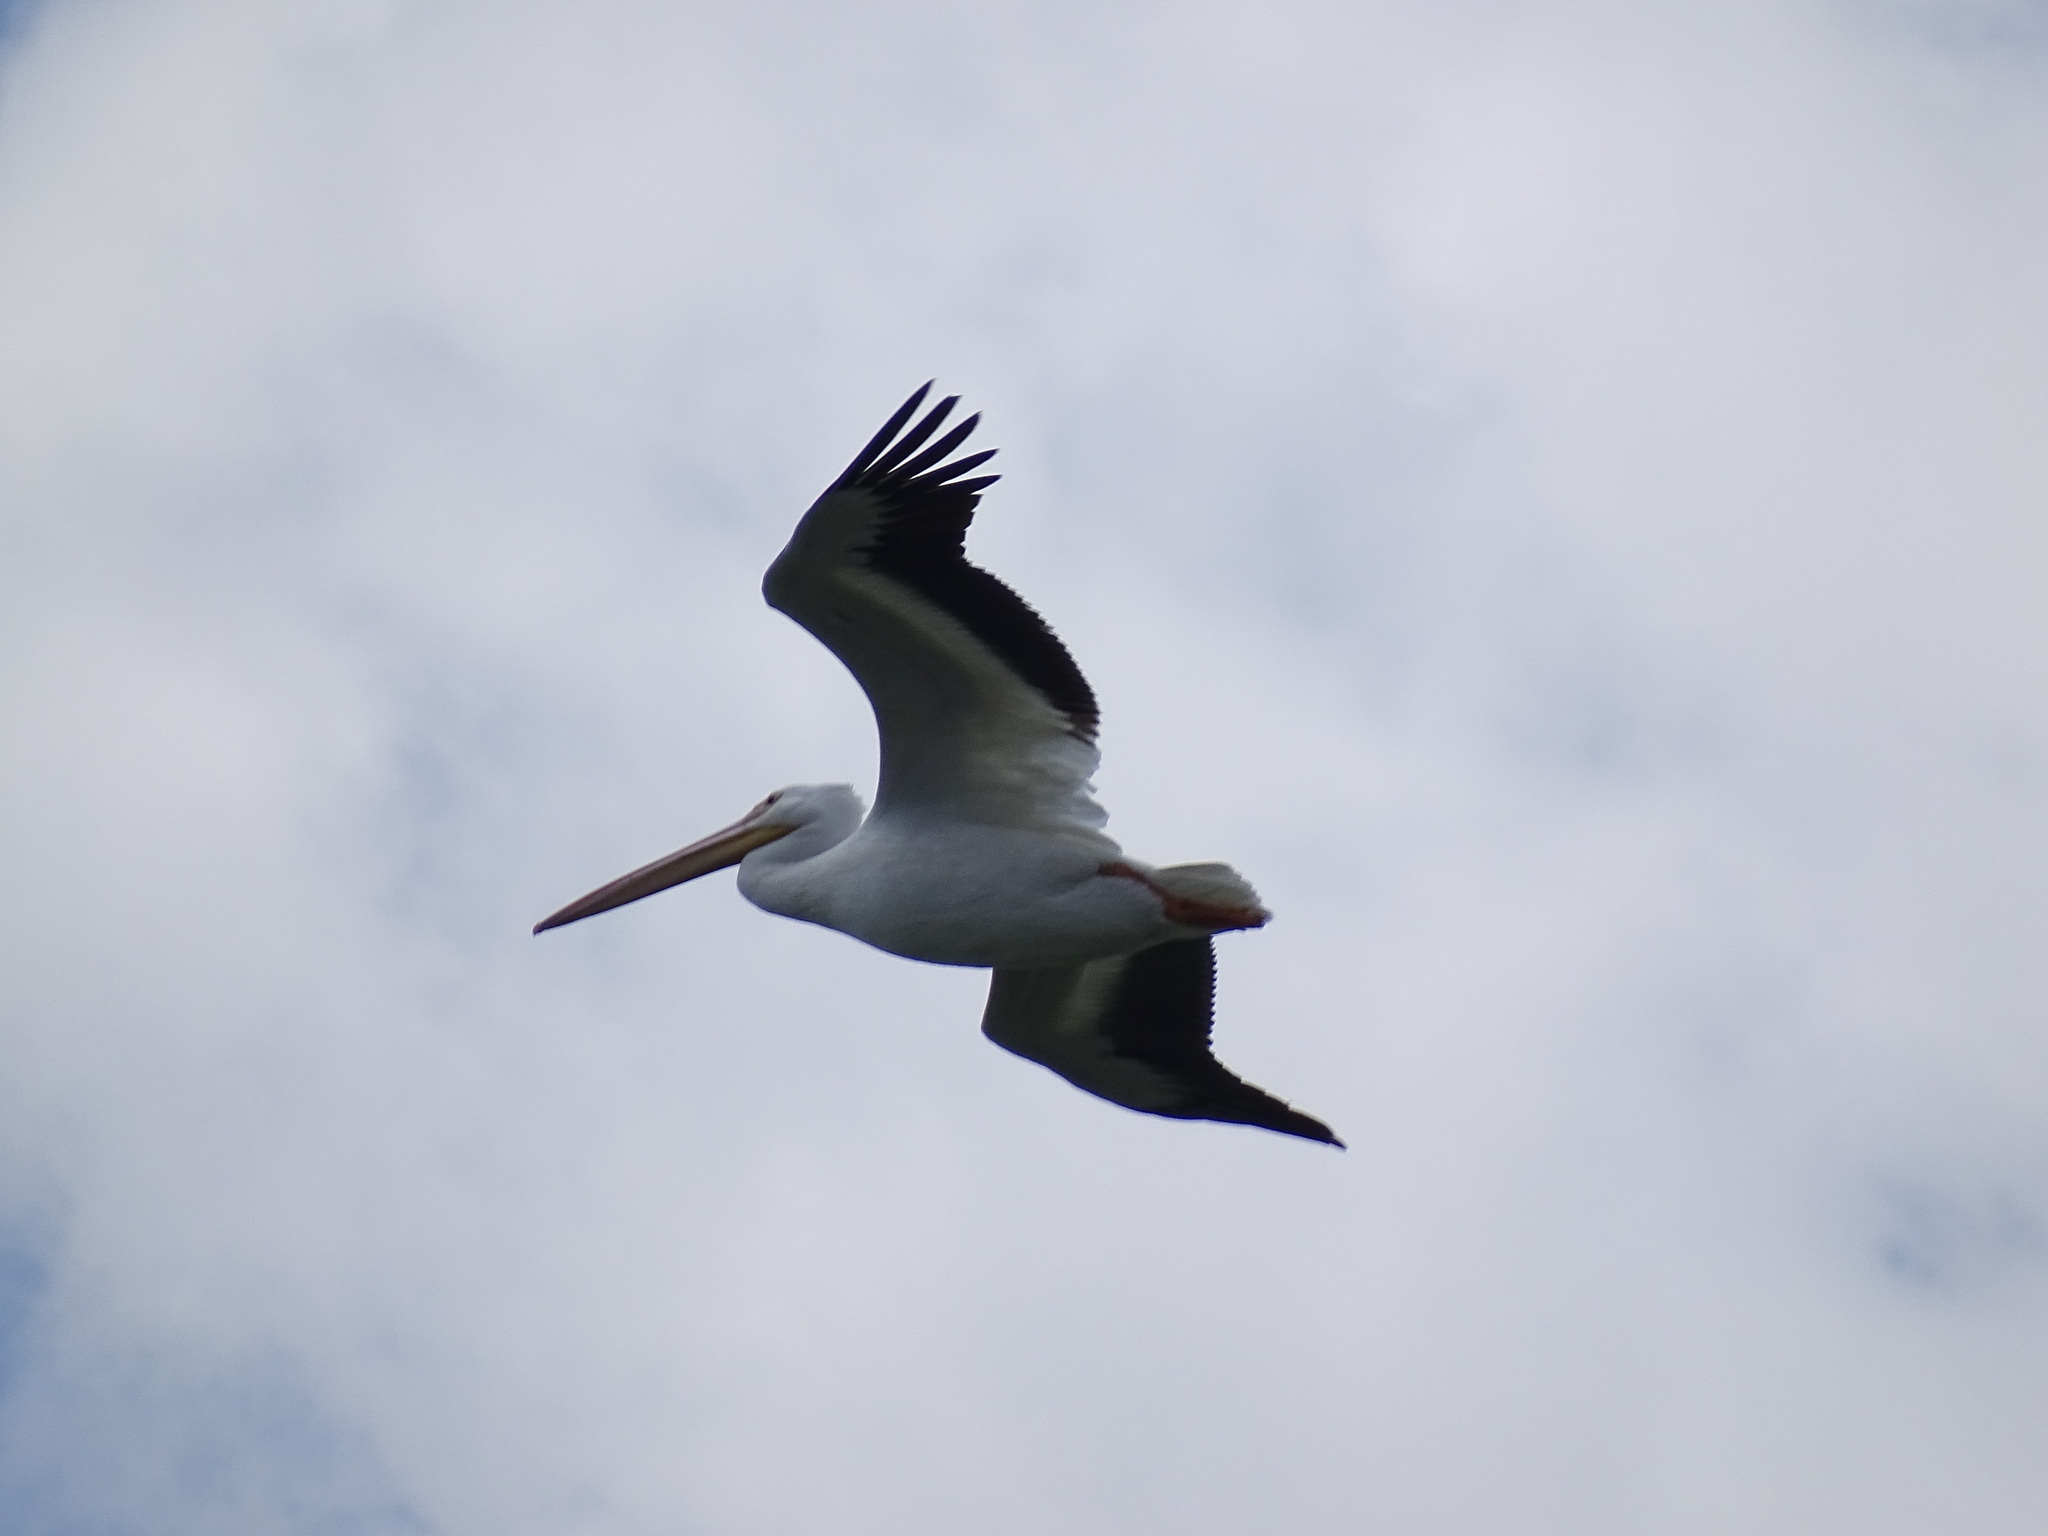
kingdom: Animalia
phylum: Chordata
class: Aves
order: Pelecaniformes
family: Pelecanidae
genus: Pelecanus
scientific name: Pelecanus erythrorhynchos
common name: American white pelican
